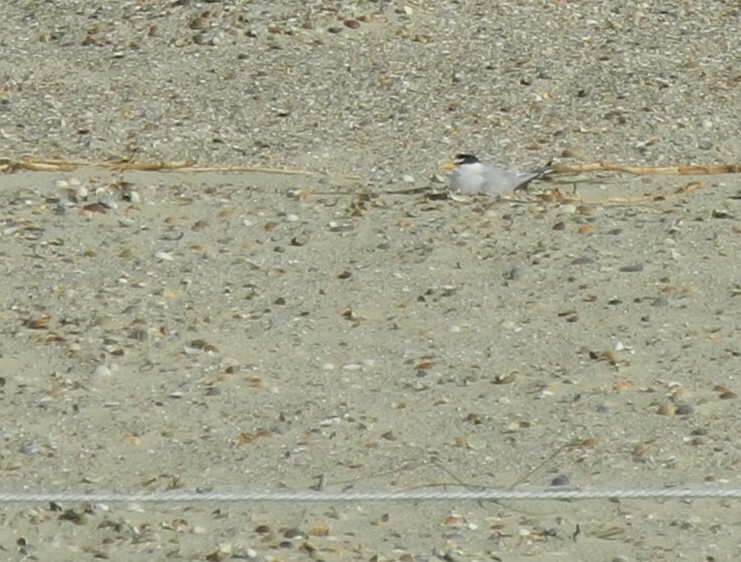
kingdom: Animalia
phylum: Chordata
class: Aves
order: Charadriiformes
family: Laridae
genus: Sternula
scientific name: Sternula albifrons
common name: Little tern
